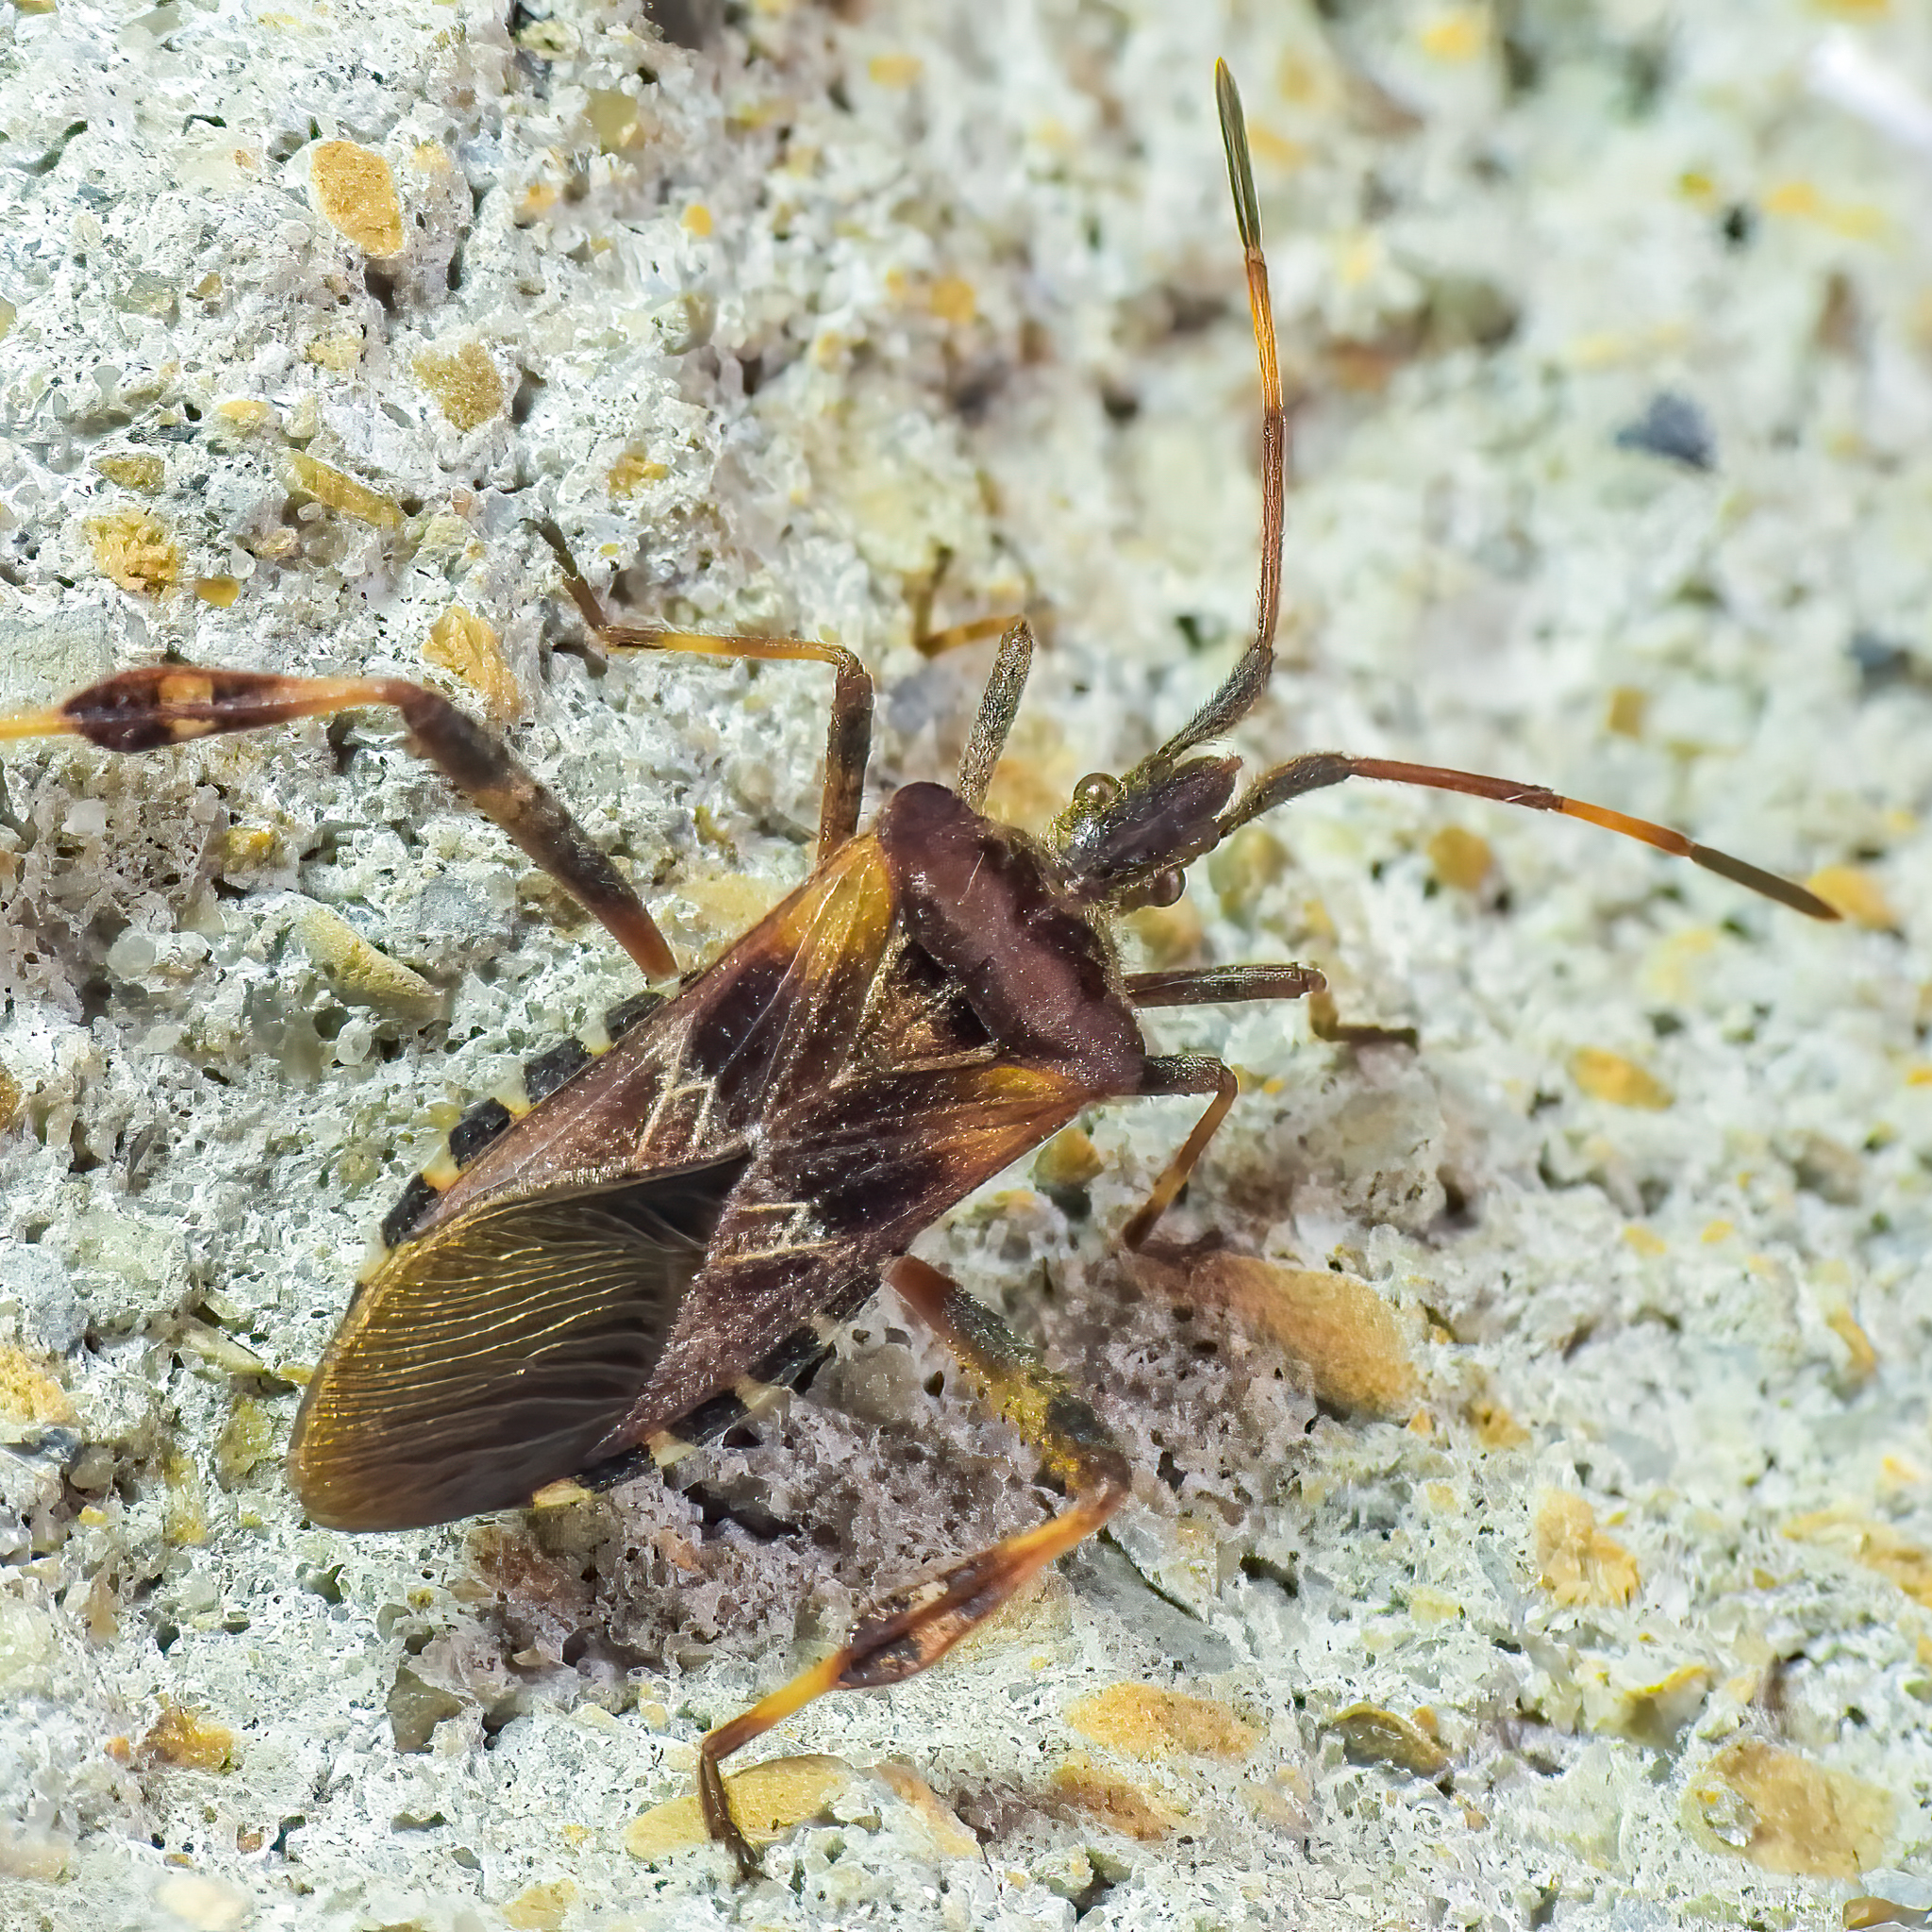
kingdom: Animalia
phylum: Arthropoda
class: Insecta
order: Hemiptera
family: Coreidae
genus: Leptoglossus
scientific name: Leptoglossus occidentalis
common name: Western conifer-seed bug
